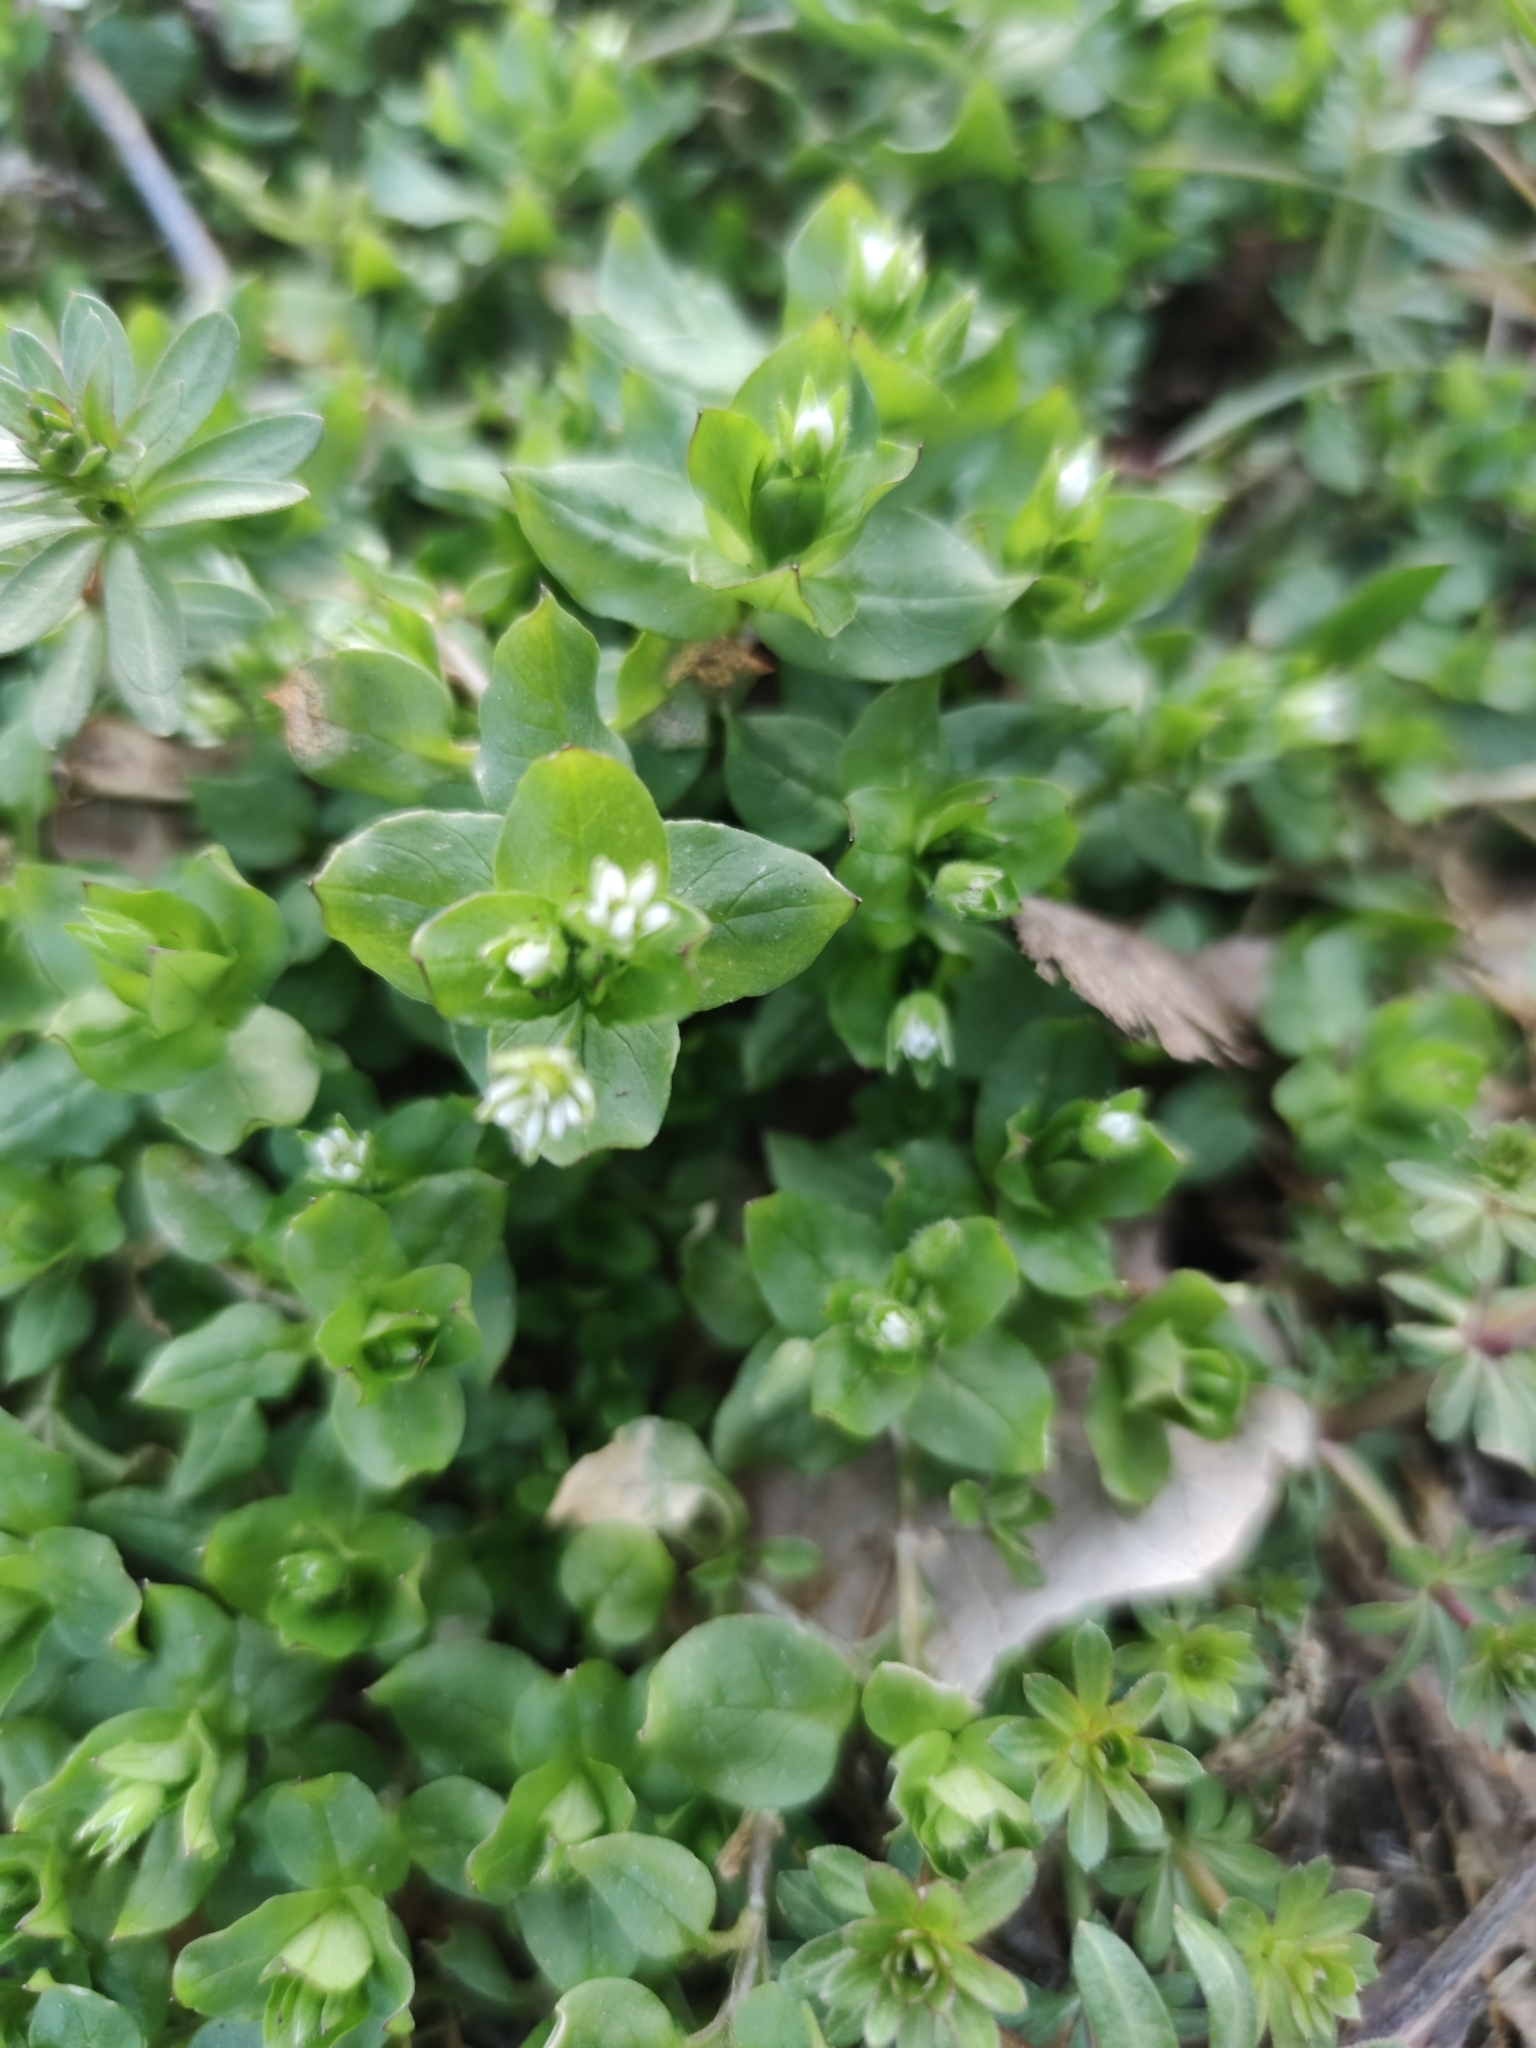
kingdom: Plantae
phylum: Tracheophyta
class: Magnoliopsida
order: Caryophyllales
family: Caryophyllaceae
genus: Stellaria
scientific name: Stellaria media
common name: Common chickweed
